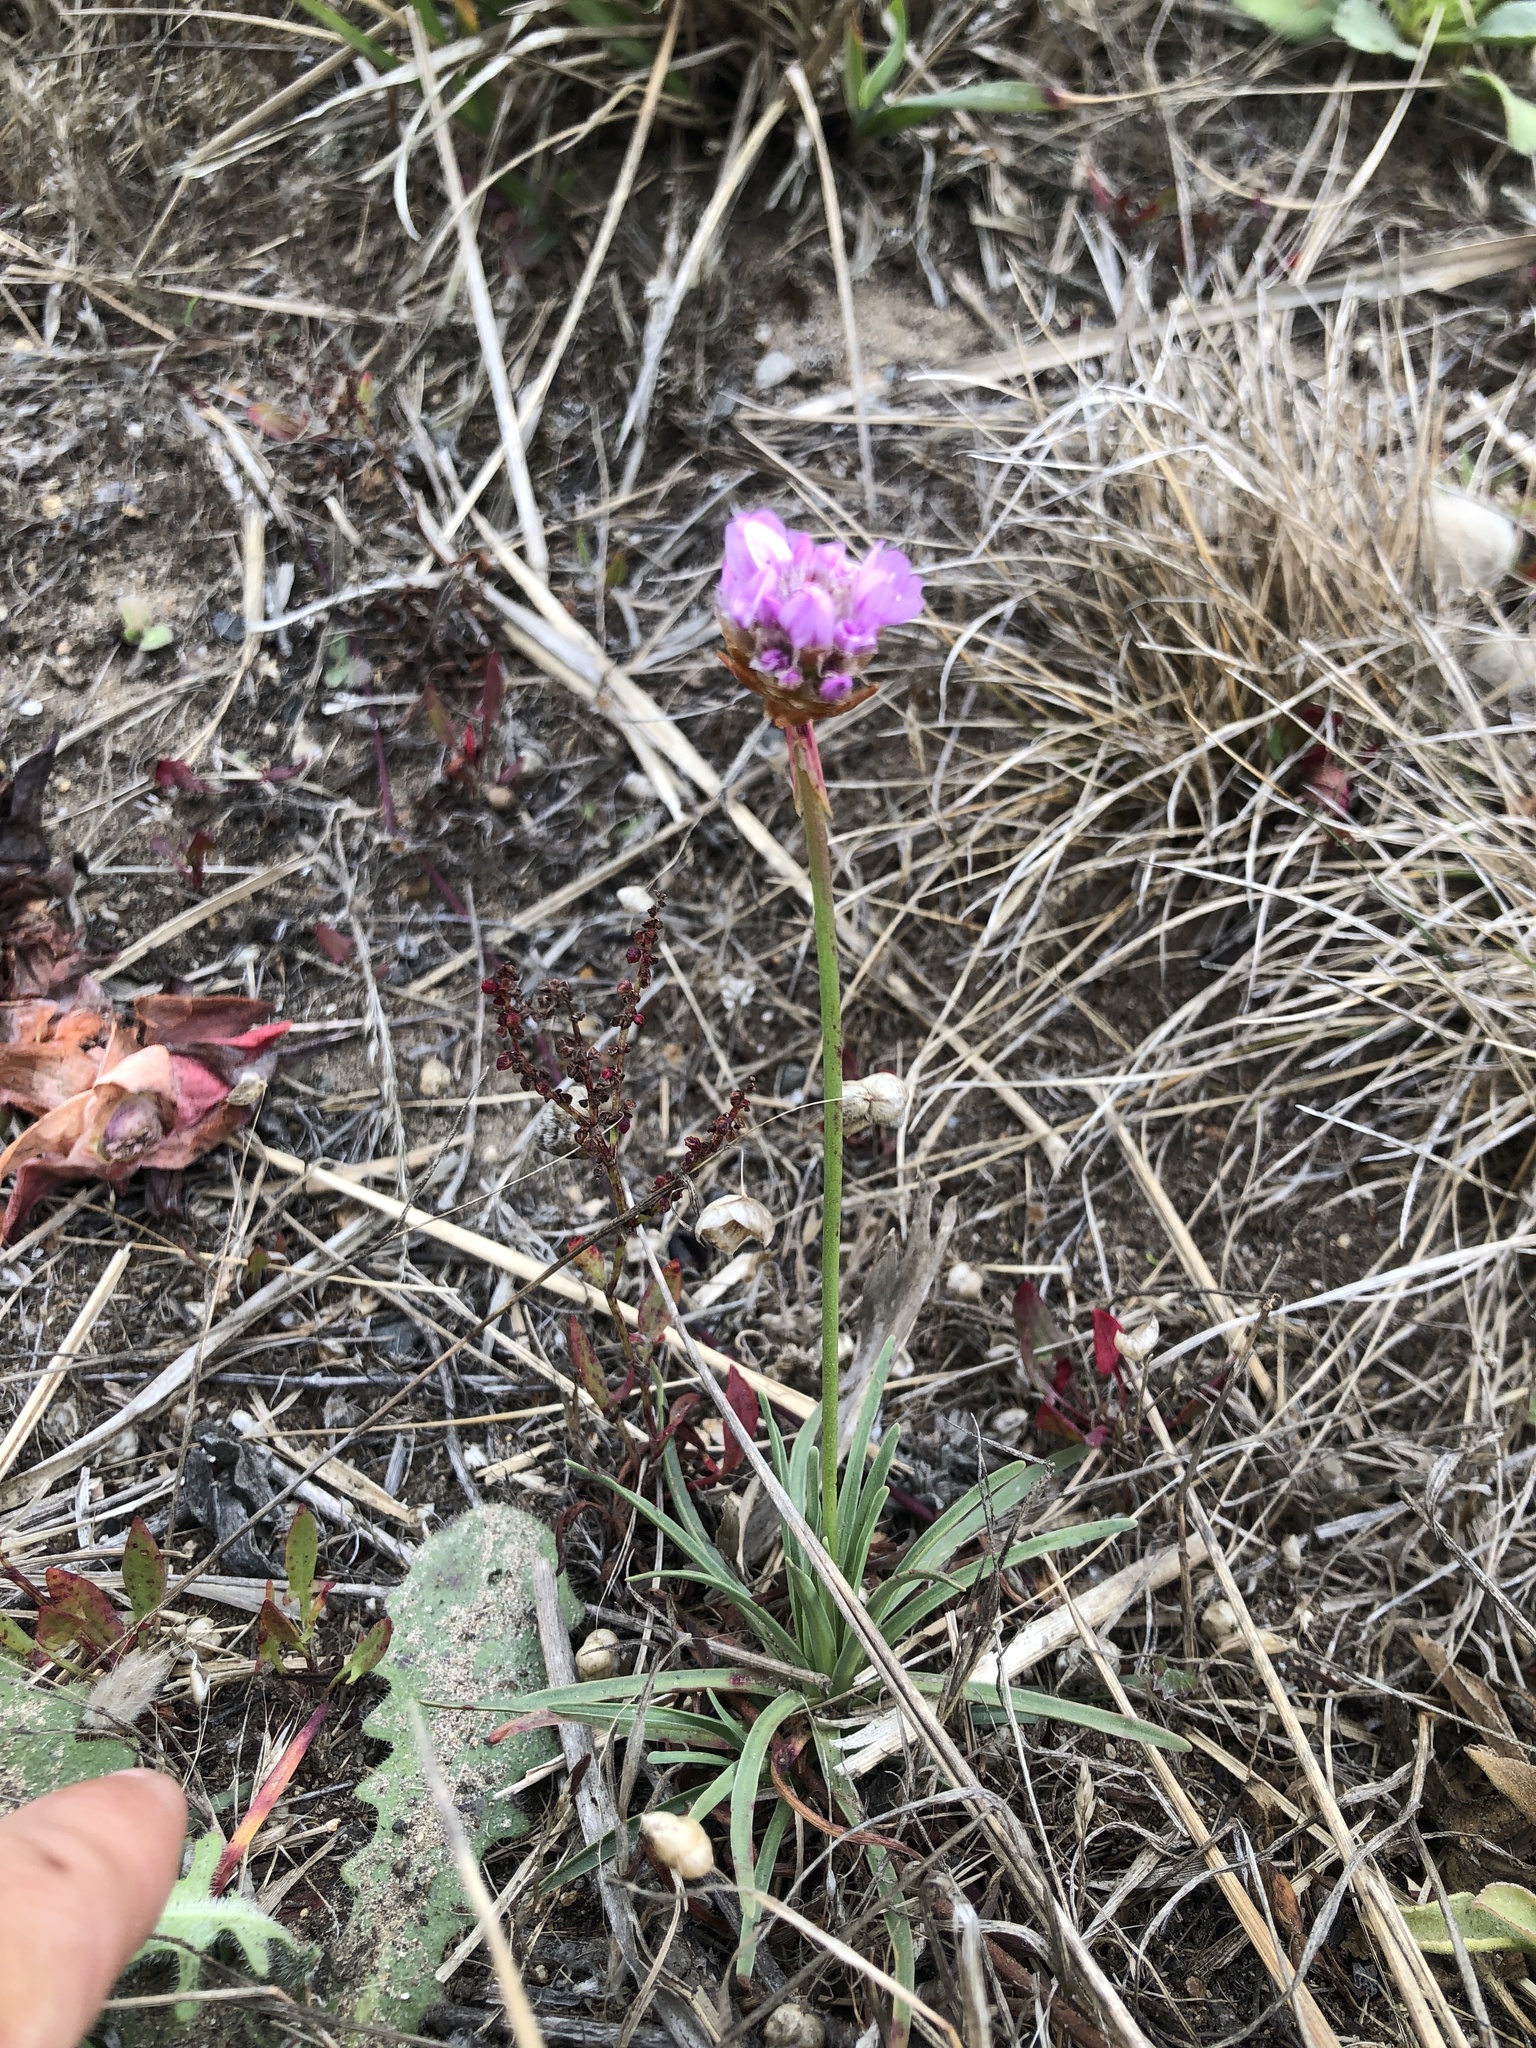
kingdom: Plantae
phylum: Tracheophyta
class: Magnoliopsida
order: Caryophyllales
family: Plumbaginaceae
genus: Armeria
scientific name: Armeria maritima
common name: Thrift
